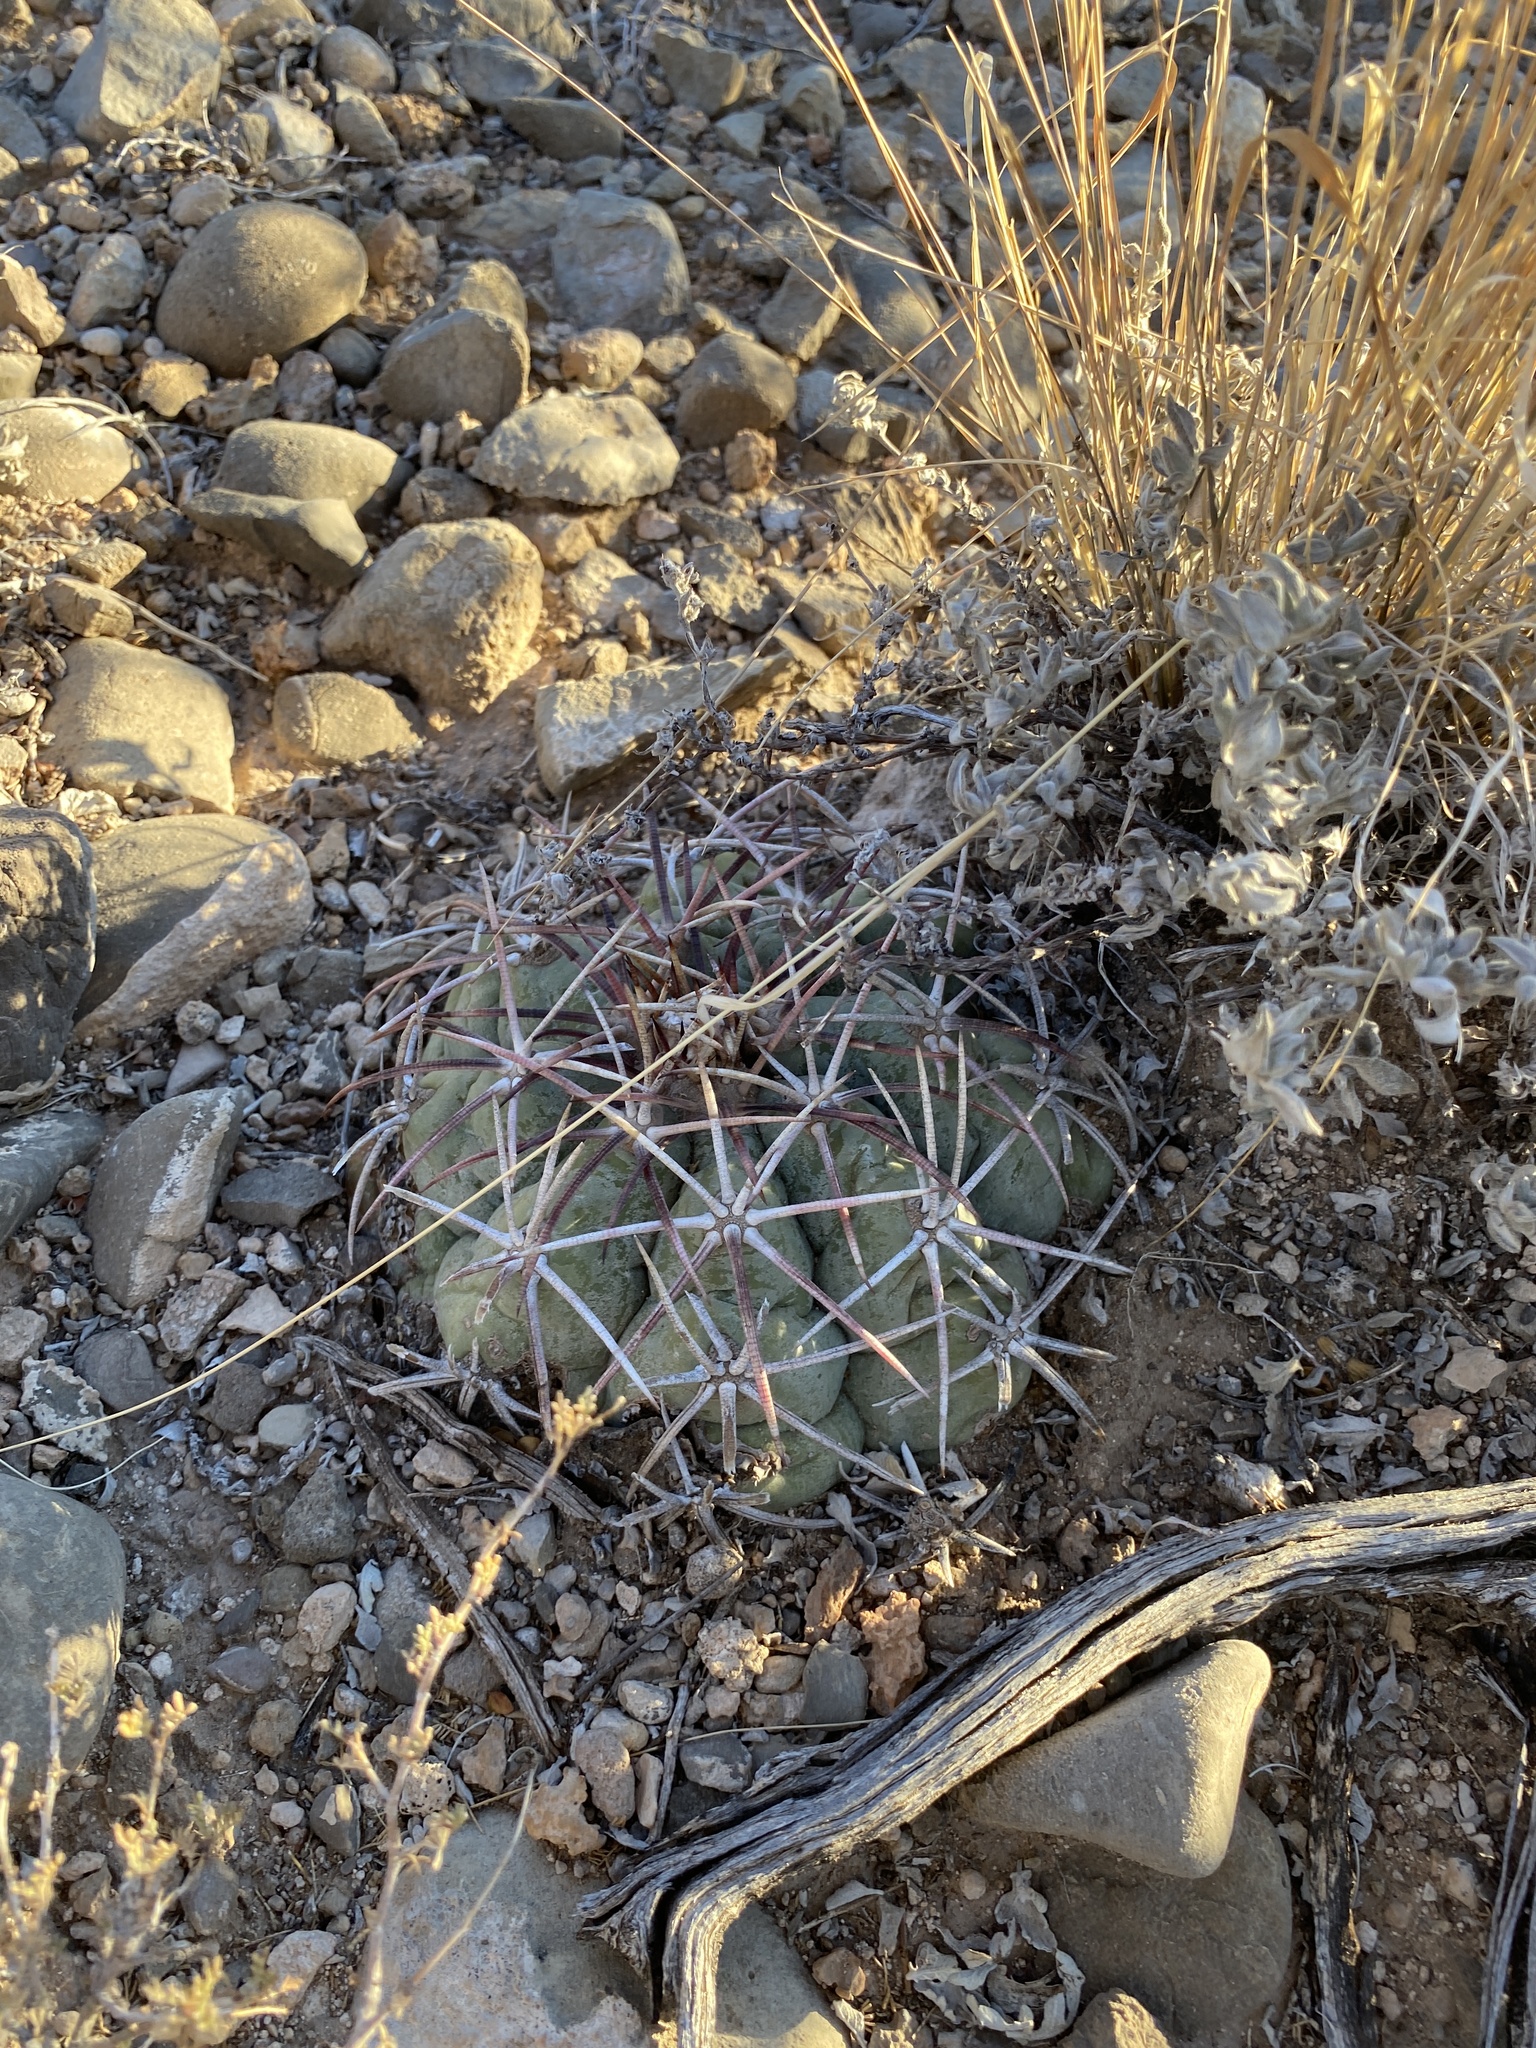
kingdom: Plantae
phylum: Tracheophyta
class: Magnoliopsida
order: Caryophyllales
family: Cactaceae
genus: Echinocactus
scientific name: Echinocactus horizonthalonius
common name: Devilshead
